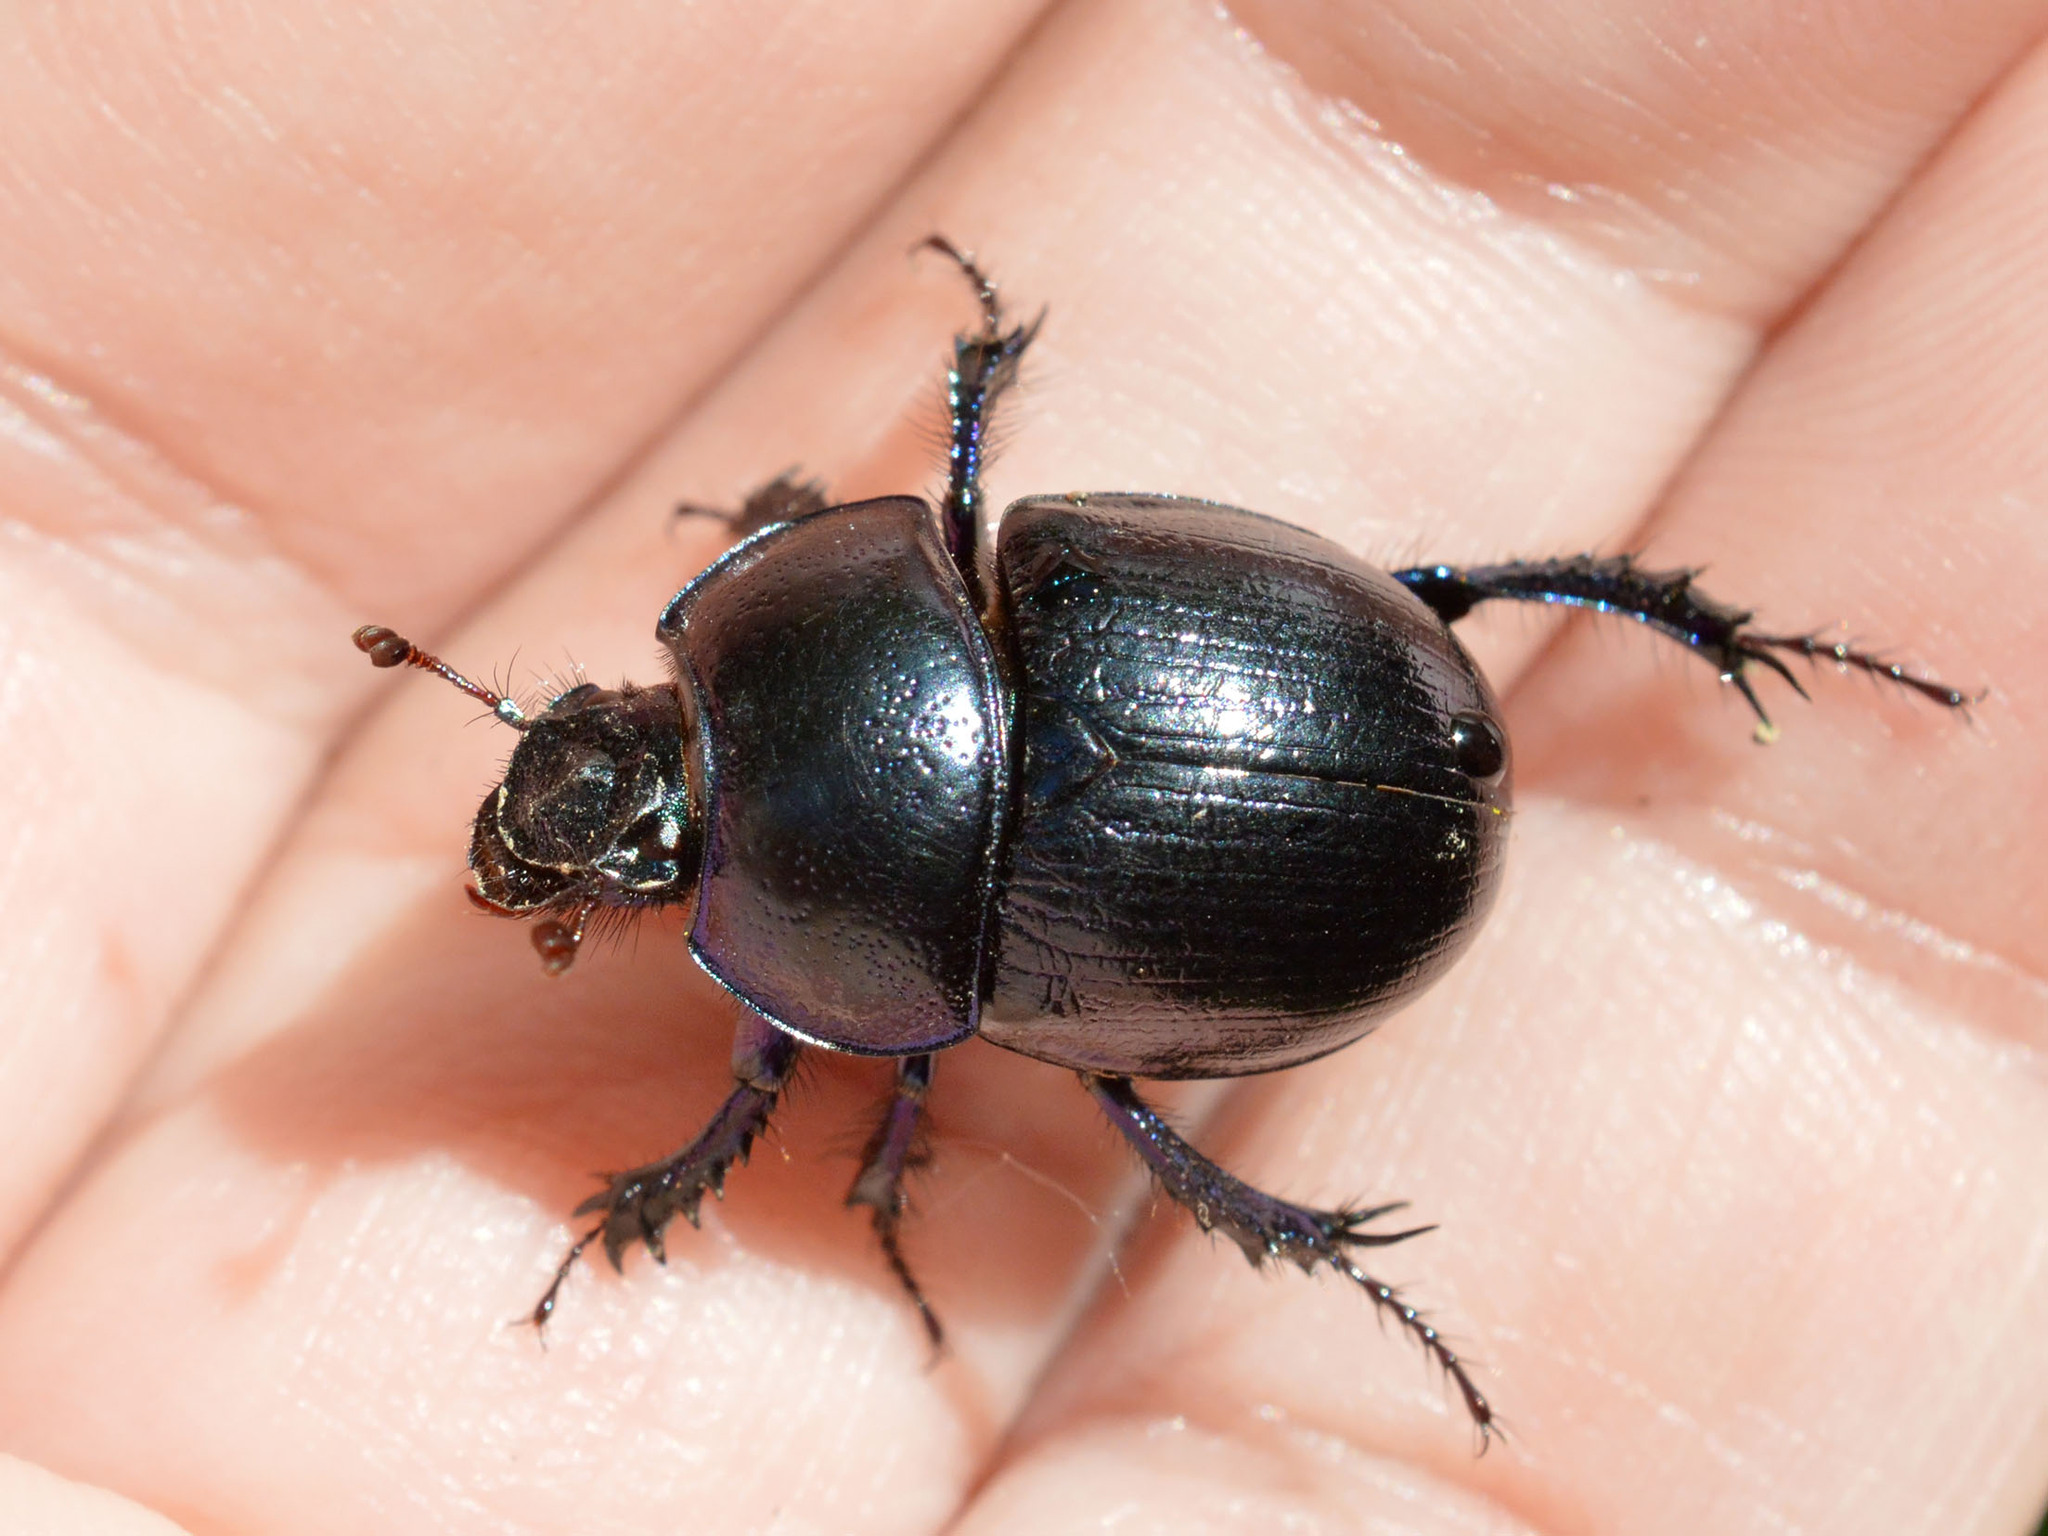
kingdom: Animalia
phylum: Arthropoda
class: Insecta
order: Coleoptera
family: Geotrupidae
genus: Anoplotrupes
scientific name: Anoplotrupes stercorosus
